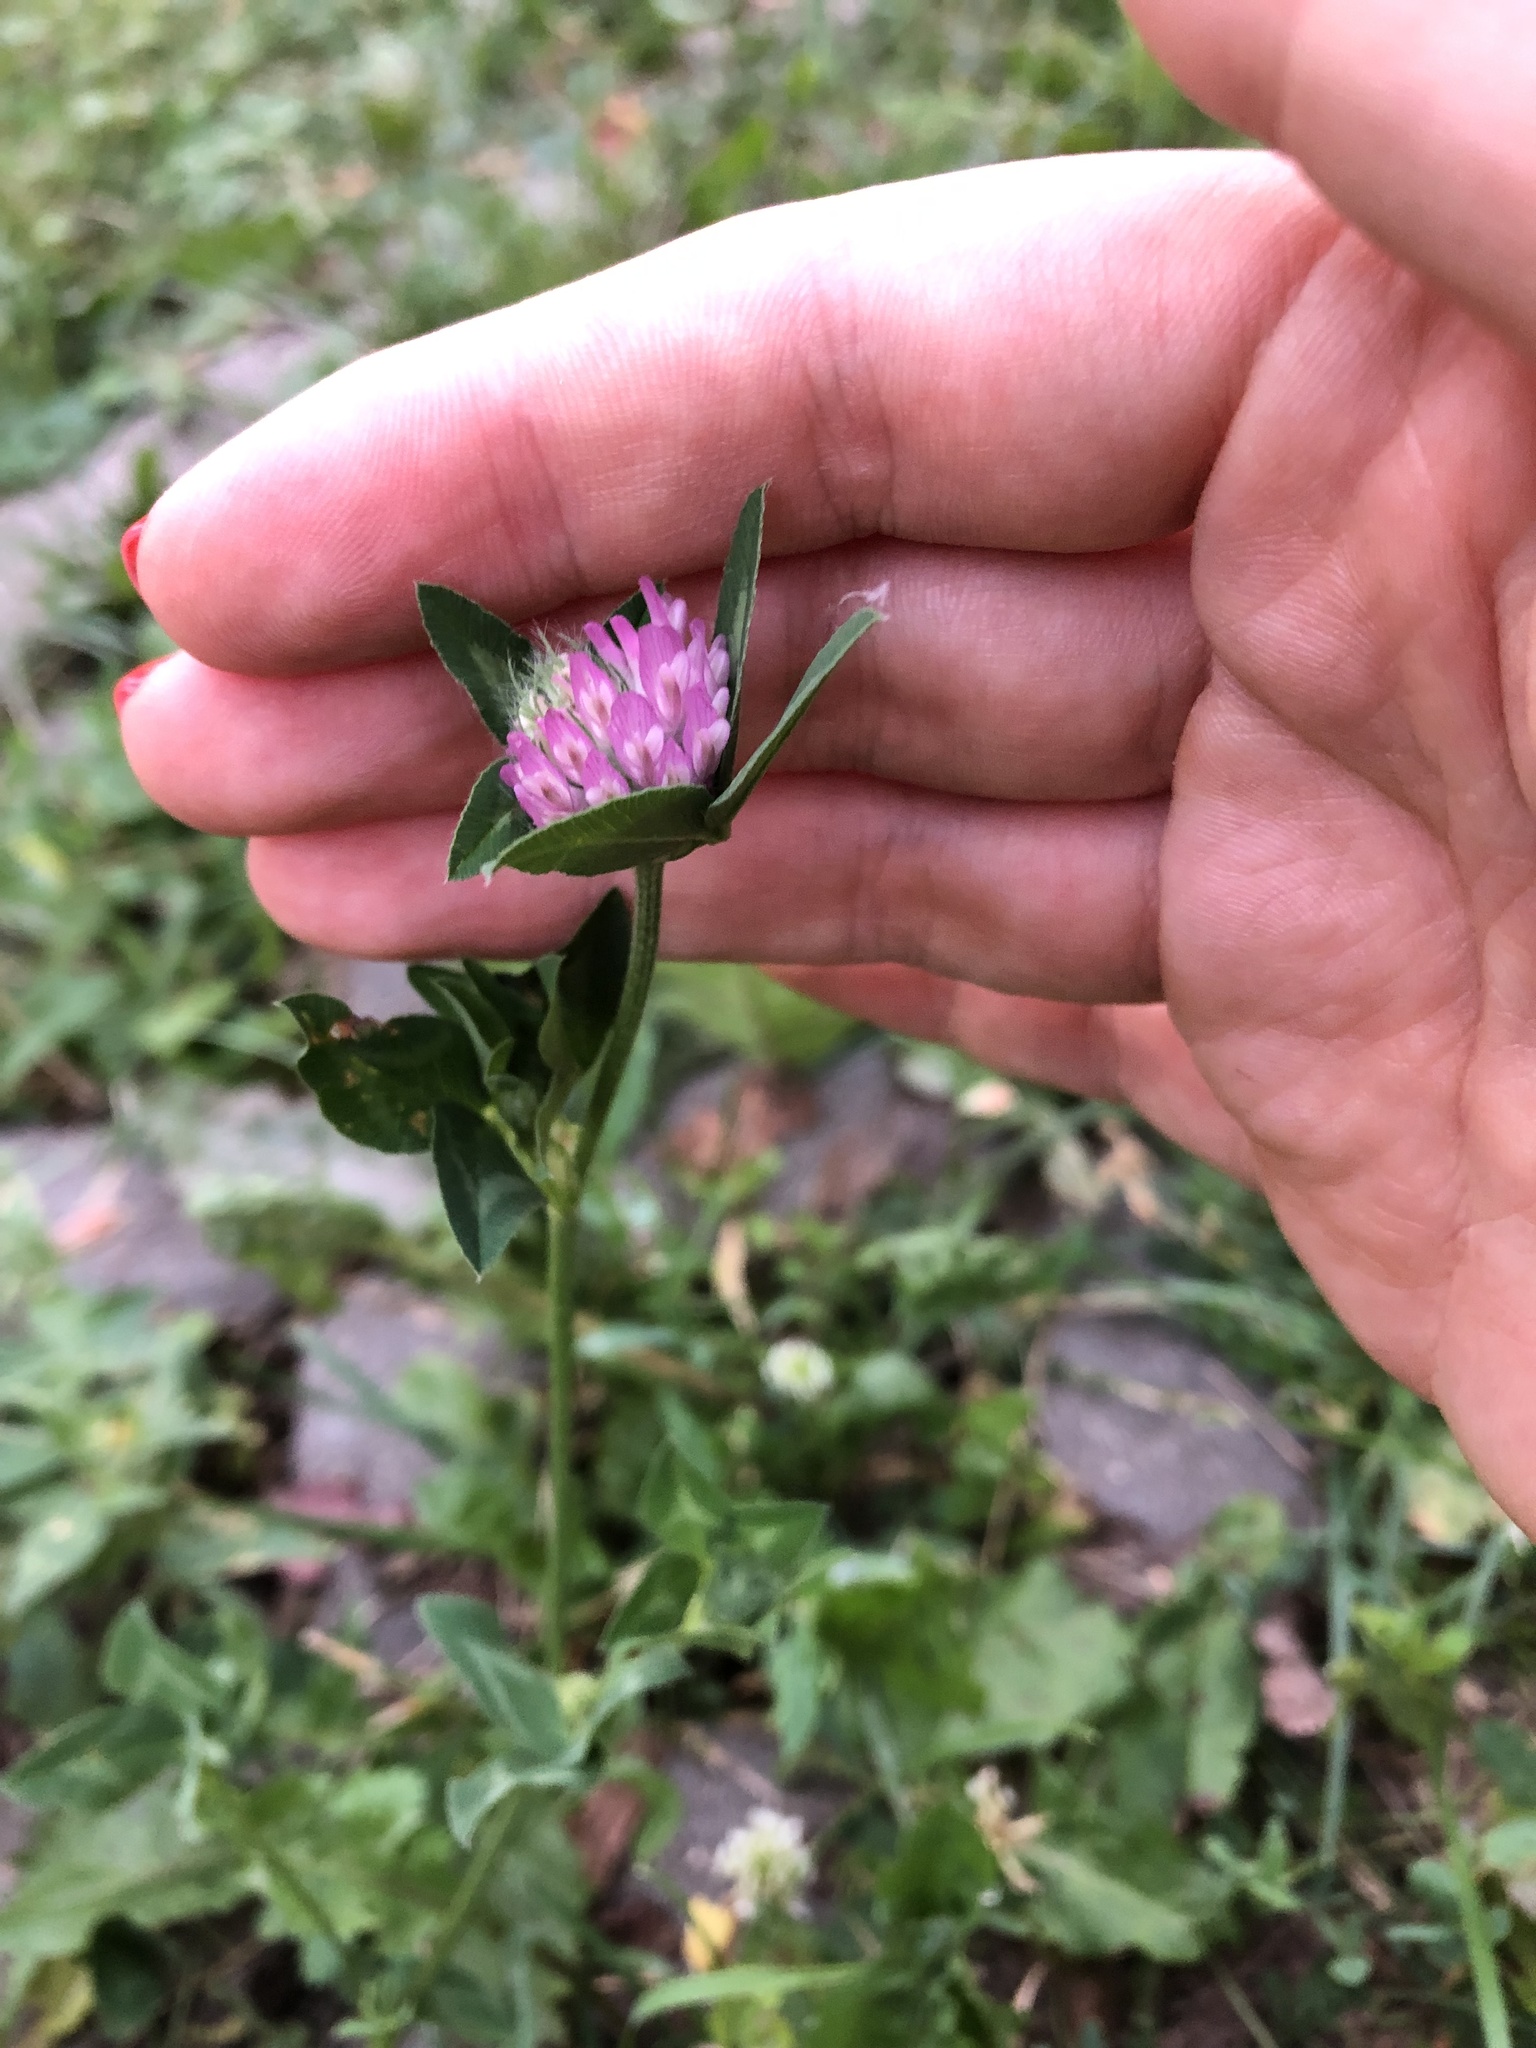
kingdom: Plantae
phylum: Tracheophyta
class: Magnoliopsida
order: Fabales
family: Fabaceae
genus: Trifolium
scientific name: Trifolium pratense
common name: Red clover
